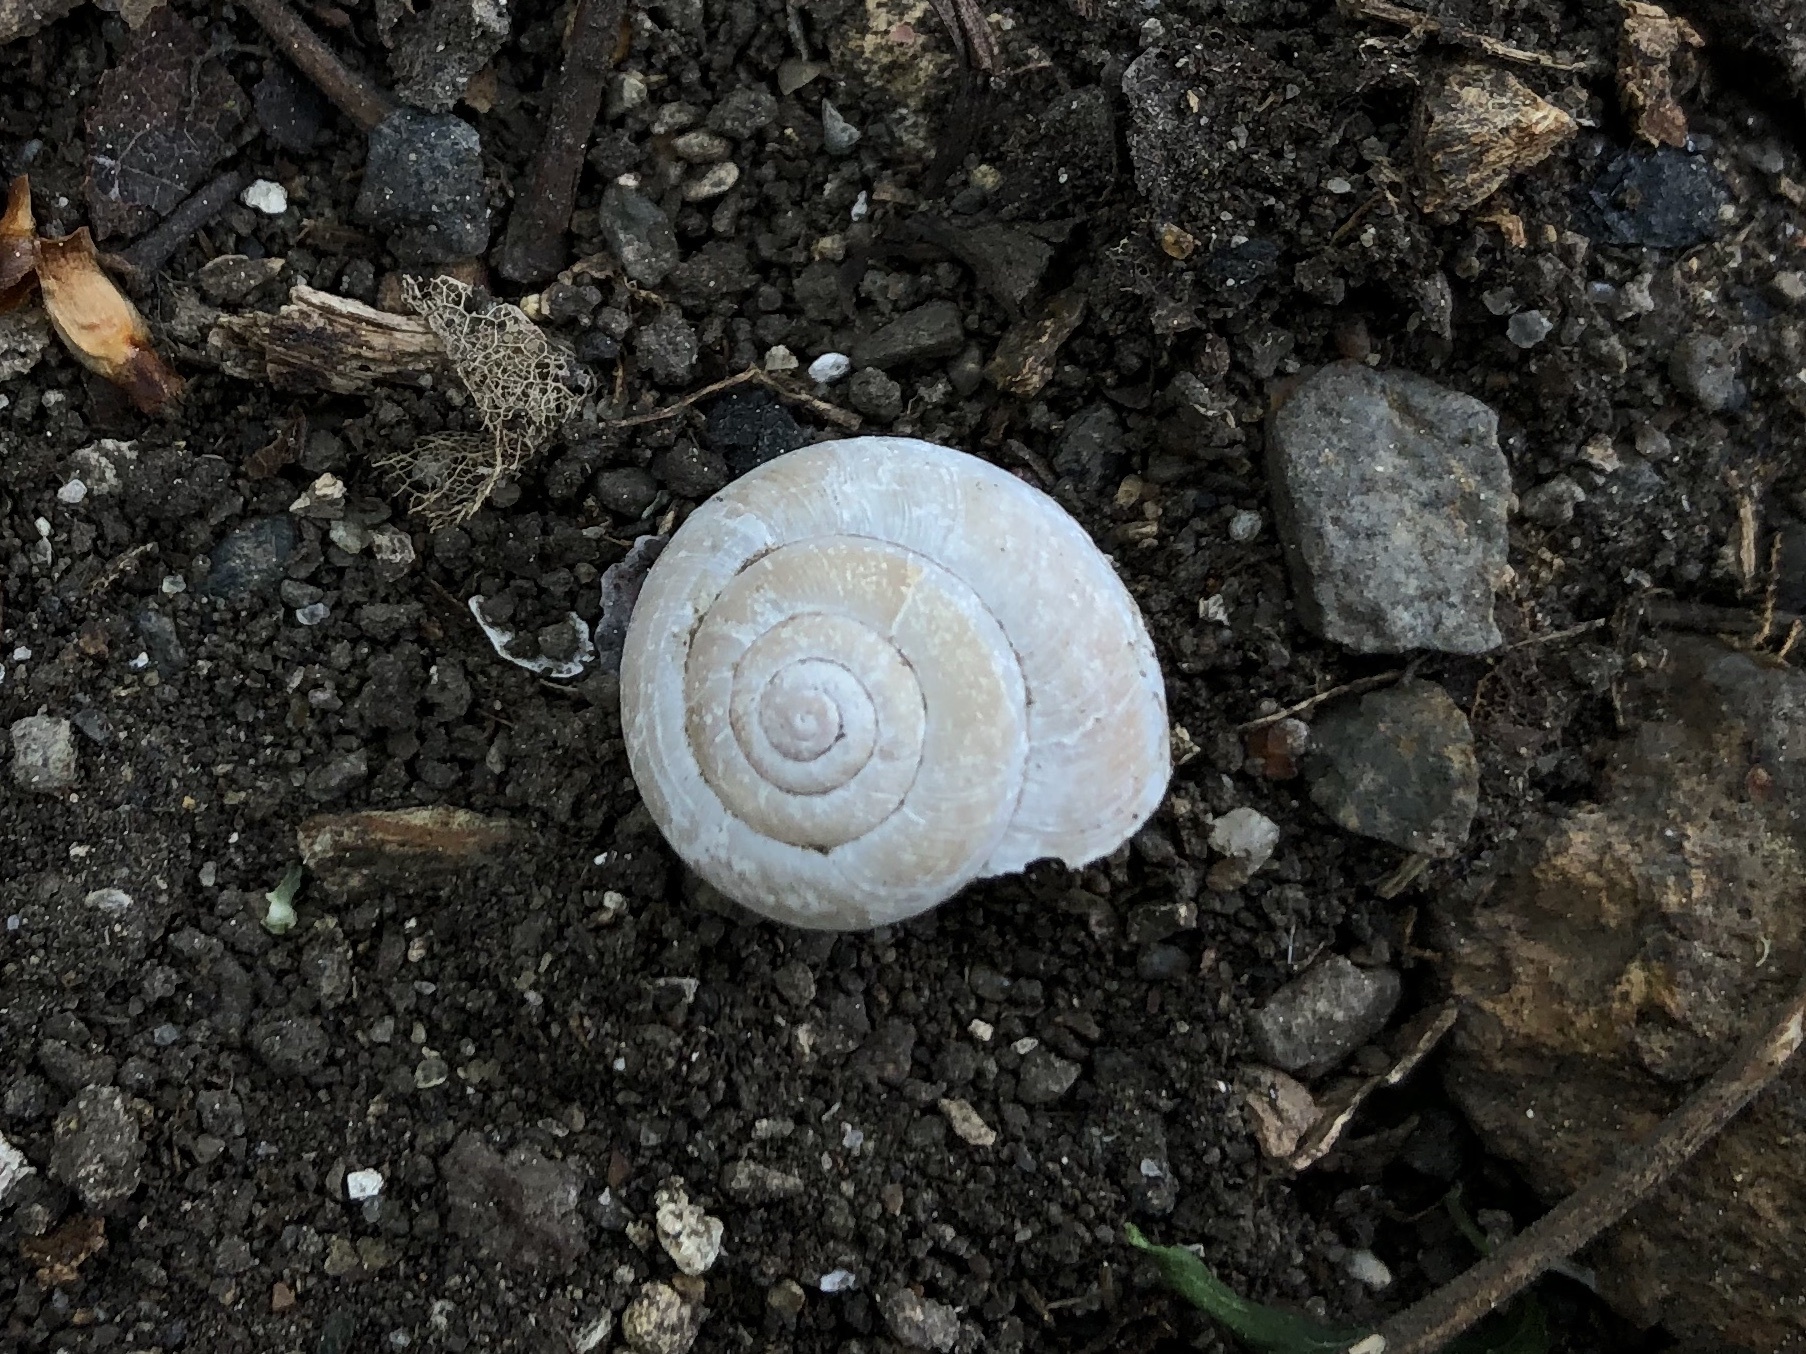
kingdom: Animalia
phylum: Mollusca
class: Gastropoda
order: Stylommatophora
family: Hygromiidae
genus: Euomphalia
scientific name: Euomphalia strigella
